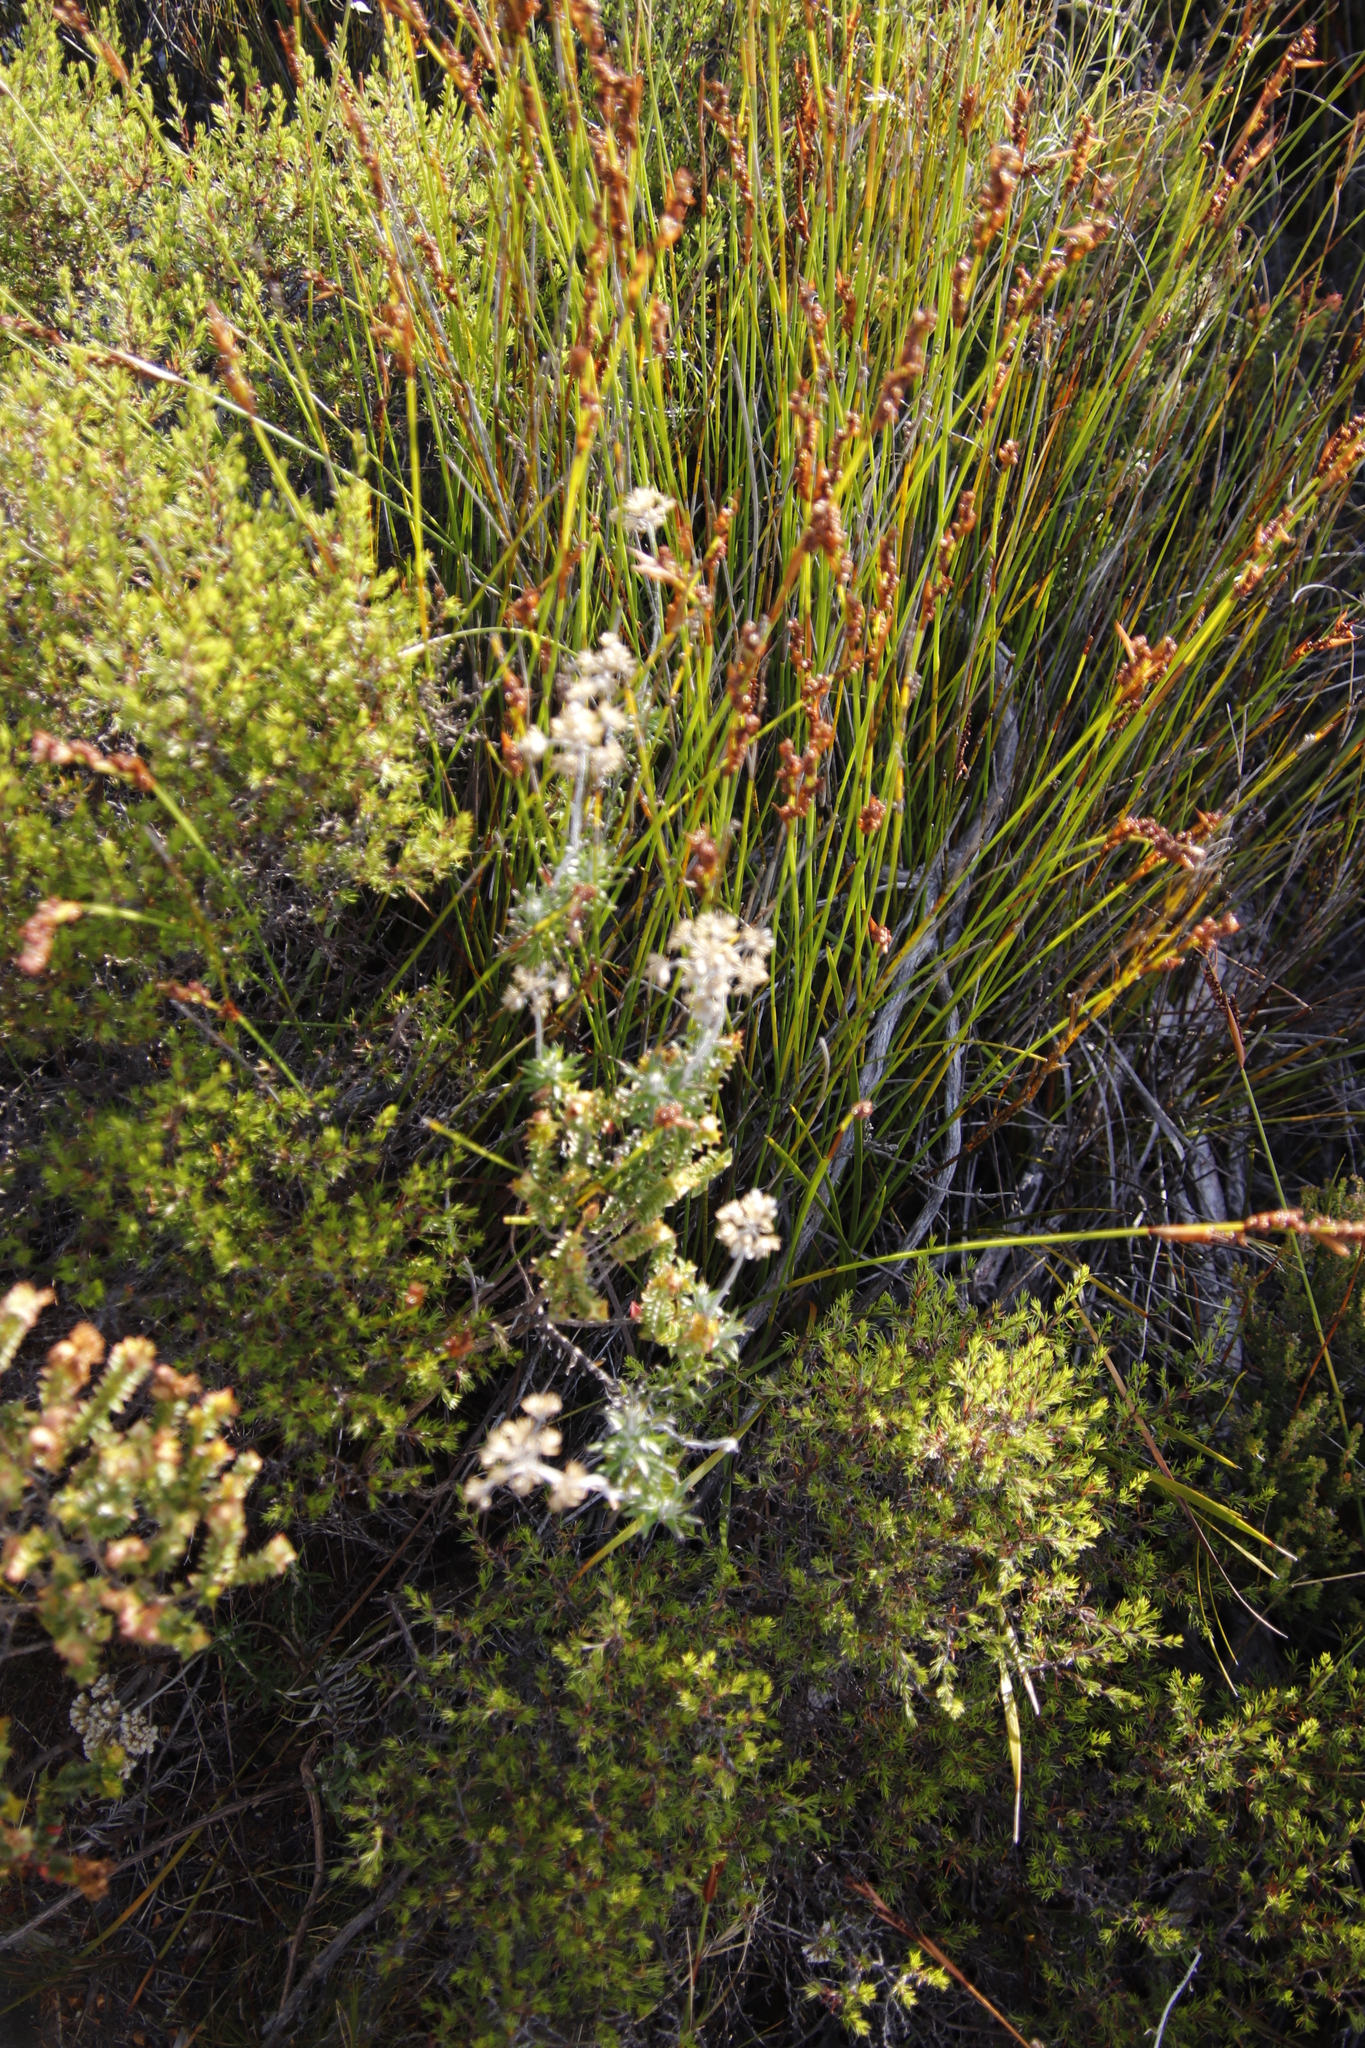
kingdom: Plantae
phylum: Tracheophyta
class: Magnoliopsida
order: Asterales
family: Asteraceae
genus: Anaxeton
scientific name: Anaxeton arborescens
